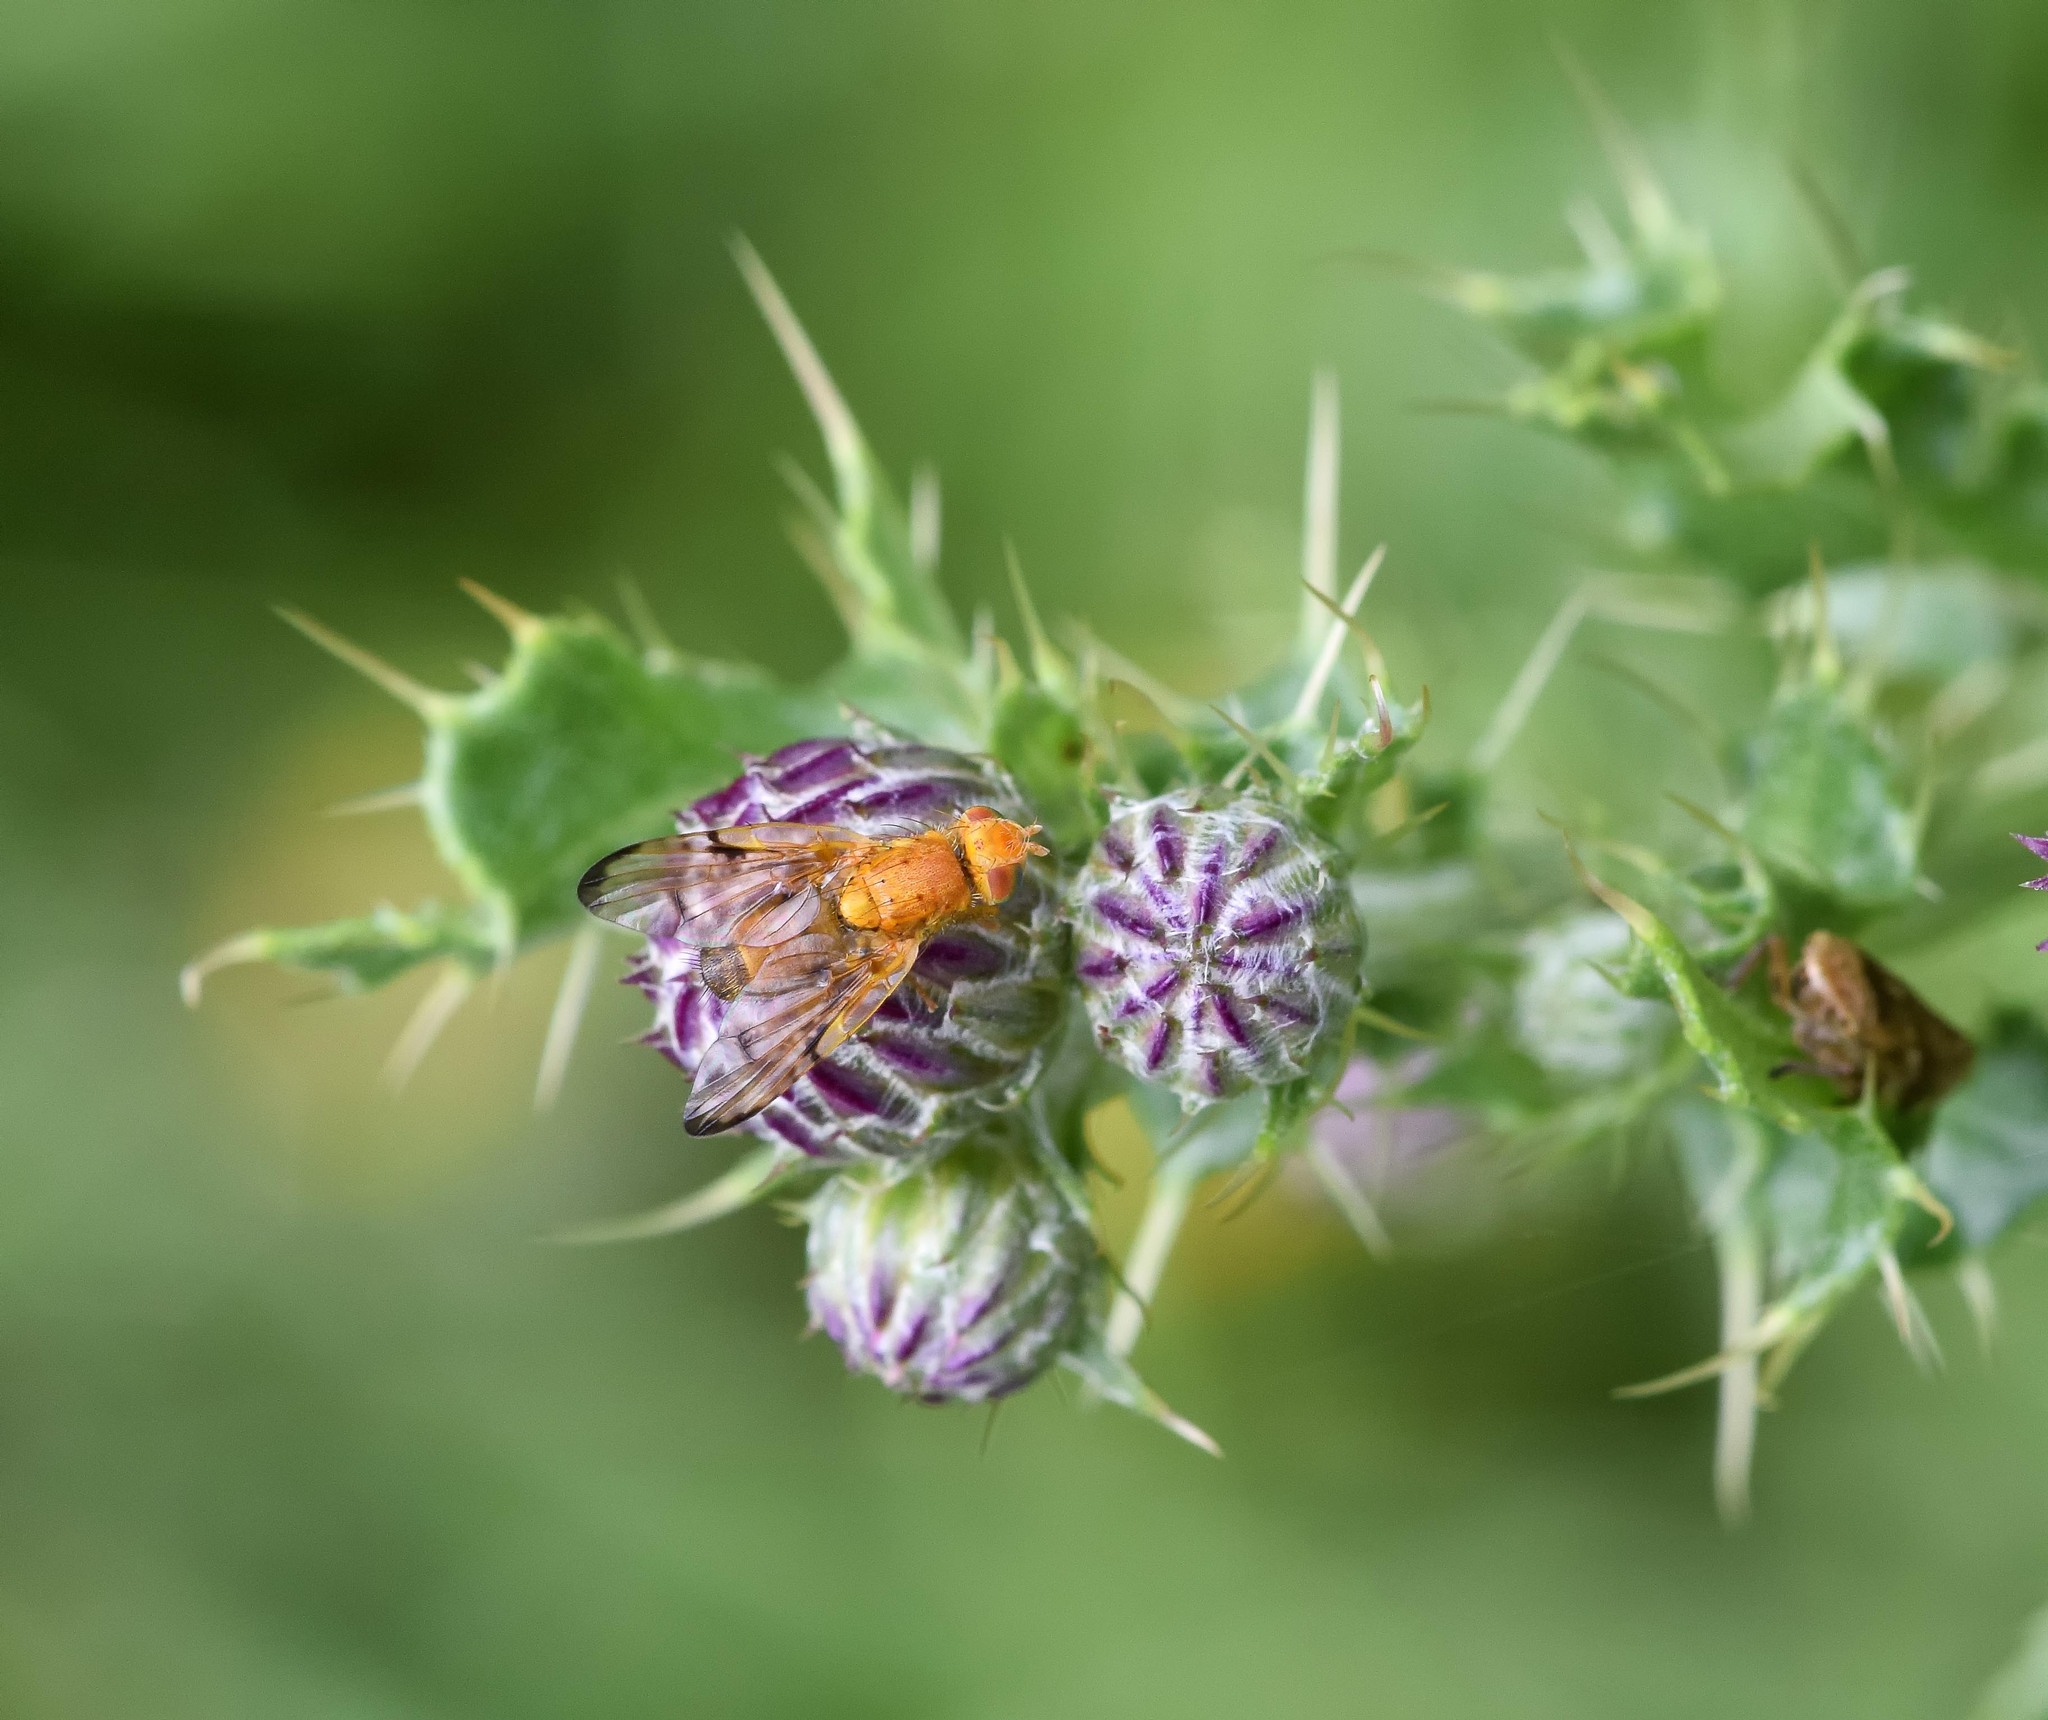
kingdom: Animalia
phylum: Arthropoda
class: Insecta
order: Diptera
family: Tephritidae
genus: Xyphosia
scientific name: Xyphosia miliaria
